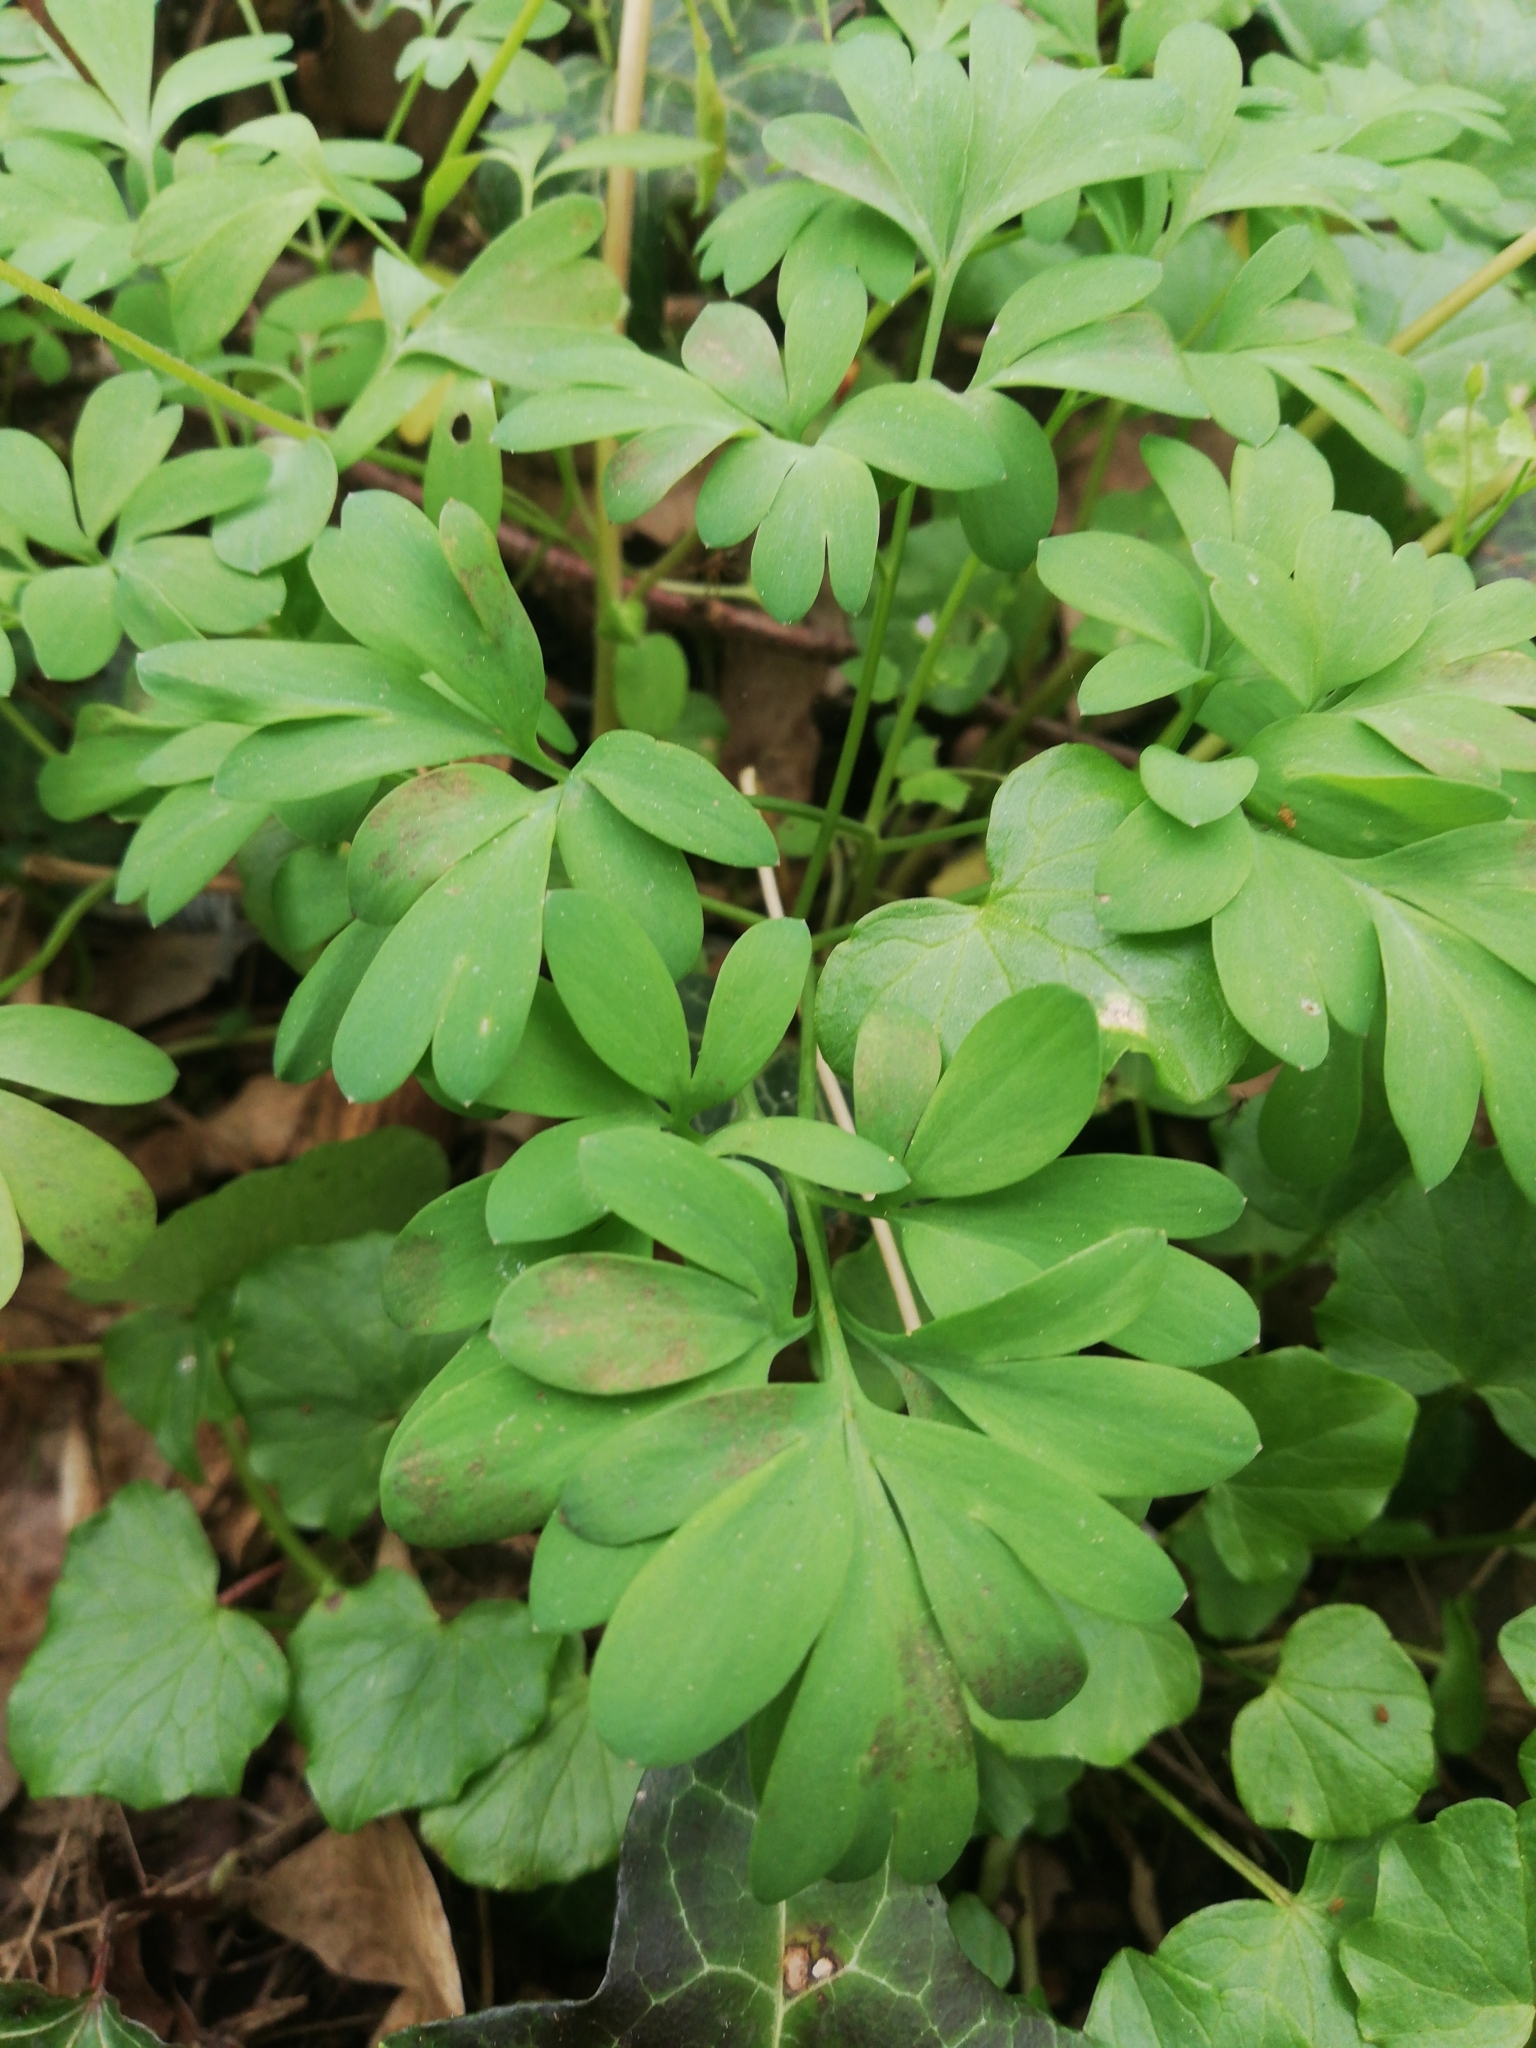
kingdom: Plantae
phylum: Tracheophyta
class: Magnoliopsida
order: Ranunculales
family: Papaveraceae
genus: Corydalis
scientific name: Corydalis solida
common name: Bird-in-a-bush
